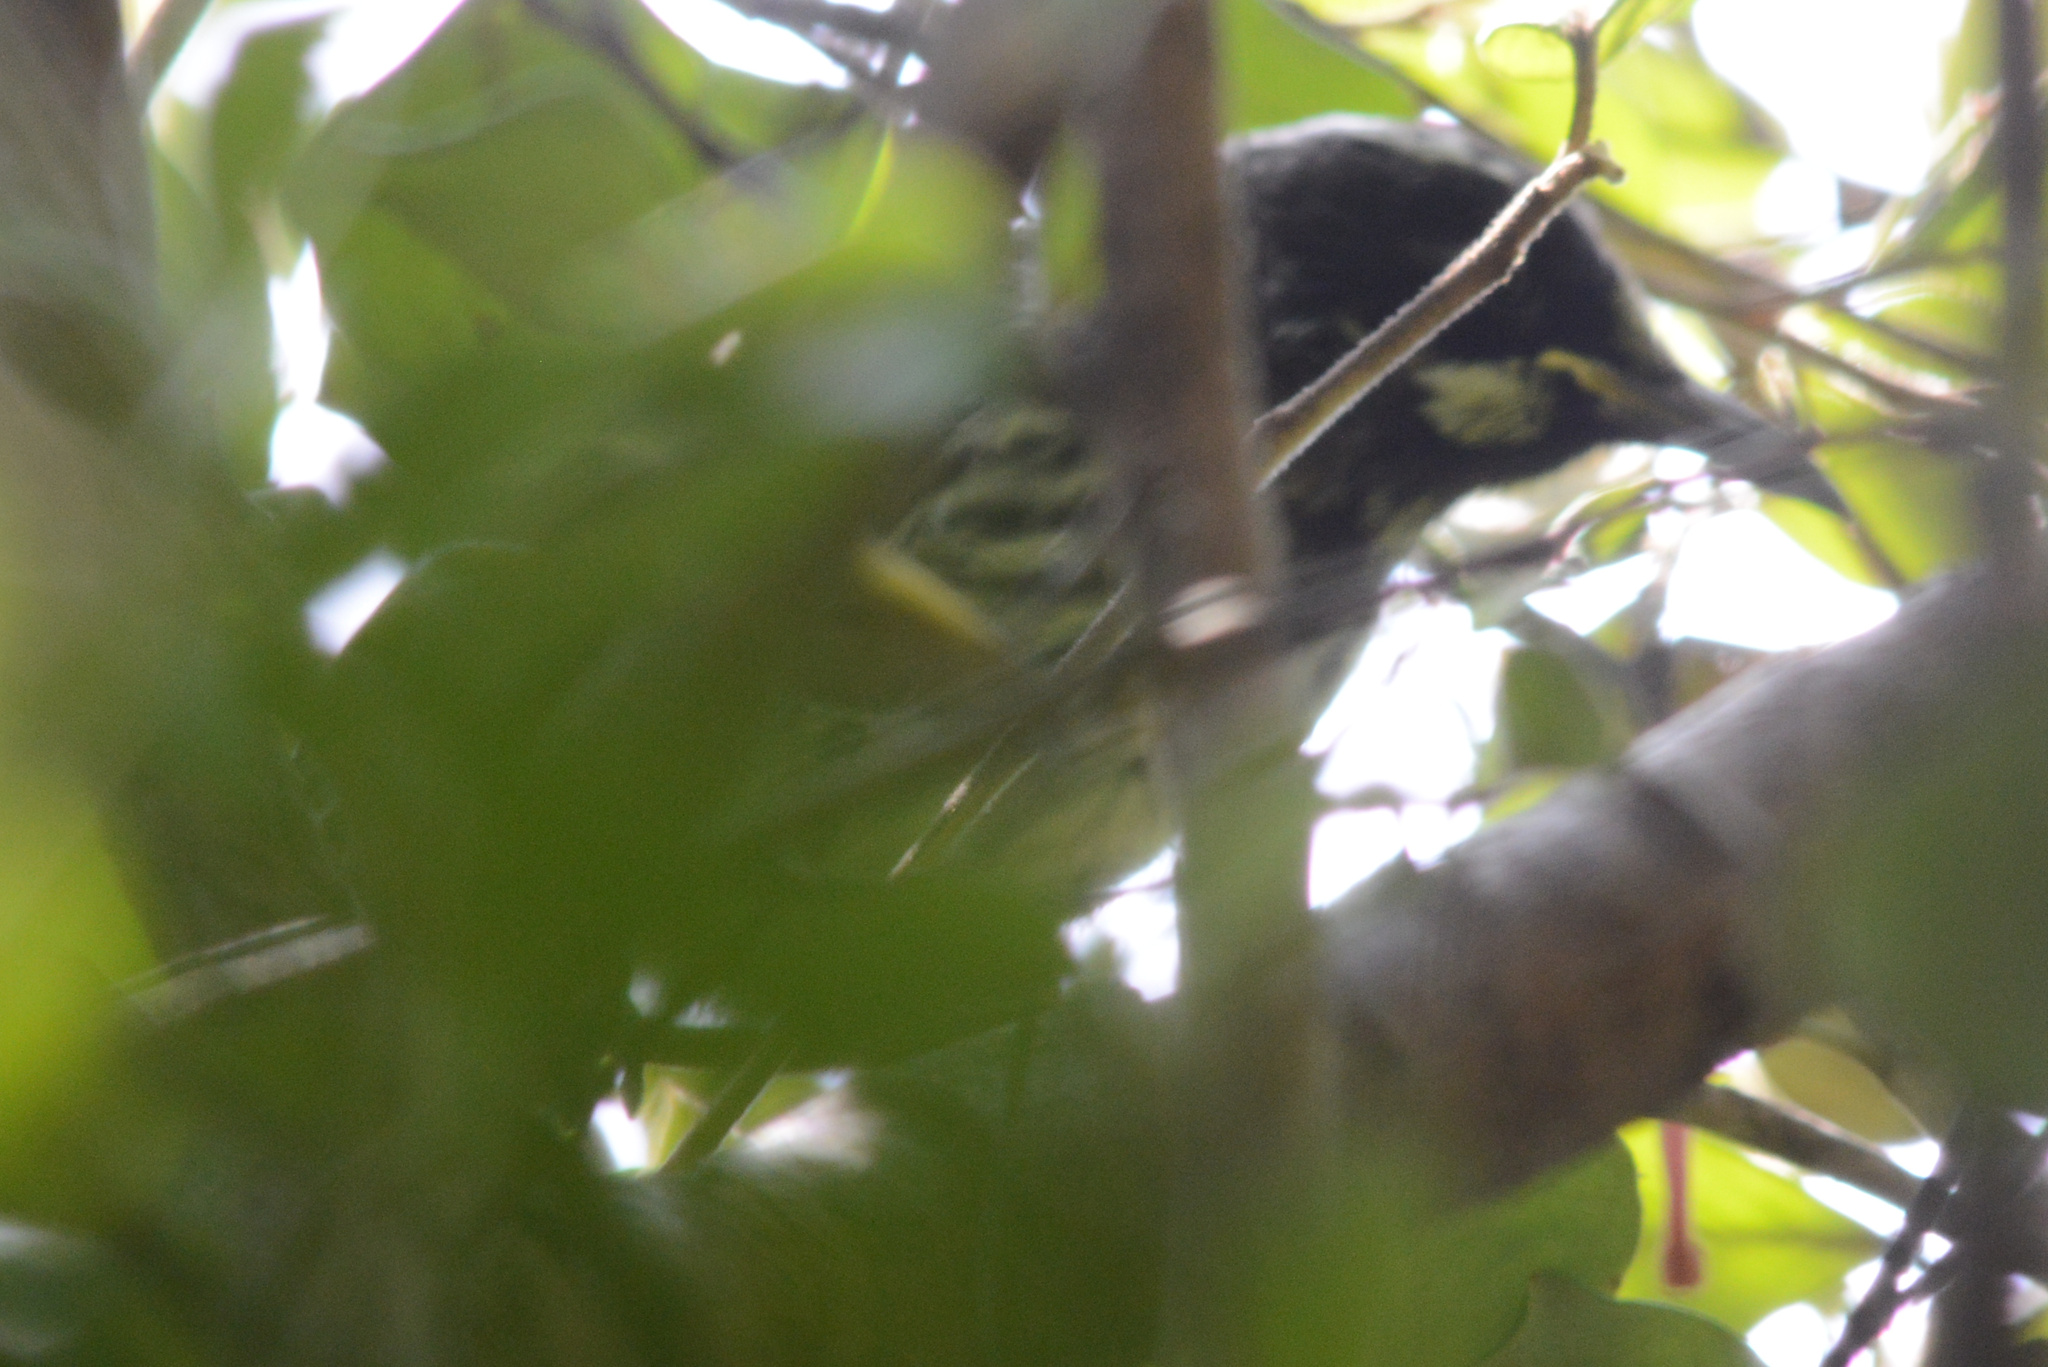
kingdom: Animalia
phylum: Chordata
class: Aves
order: Passeriformes
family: Meliphagidae
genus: Phylidonyris
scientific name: Phylidonyris novaehollandiae
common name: New holland honeyeater
